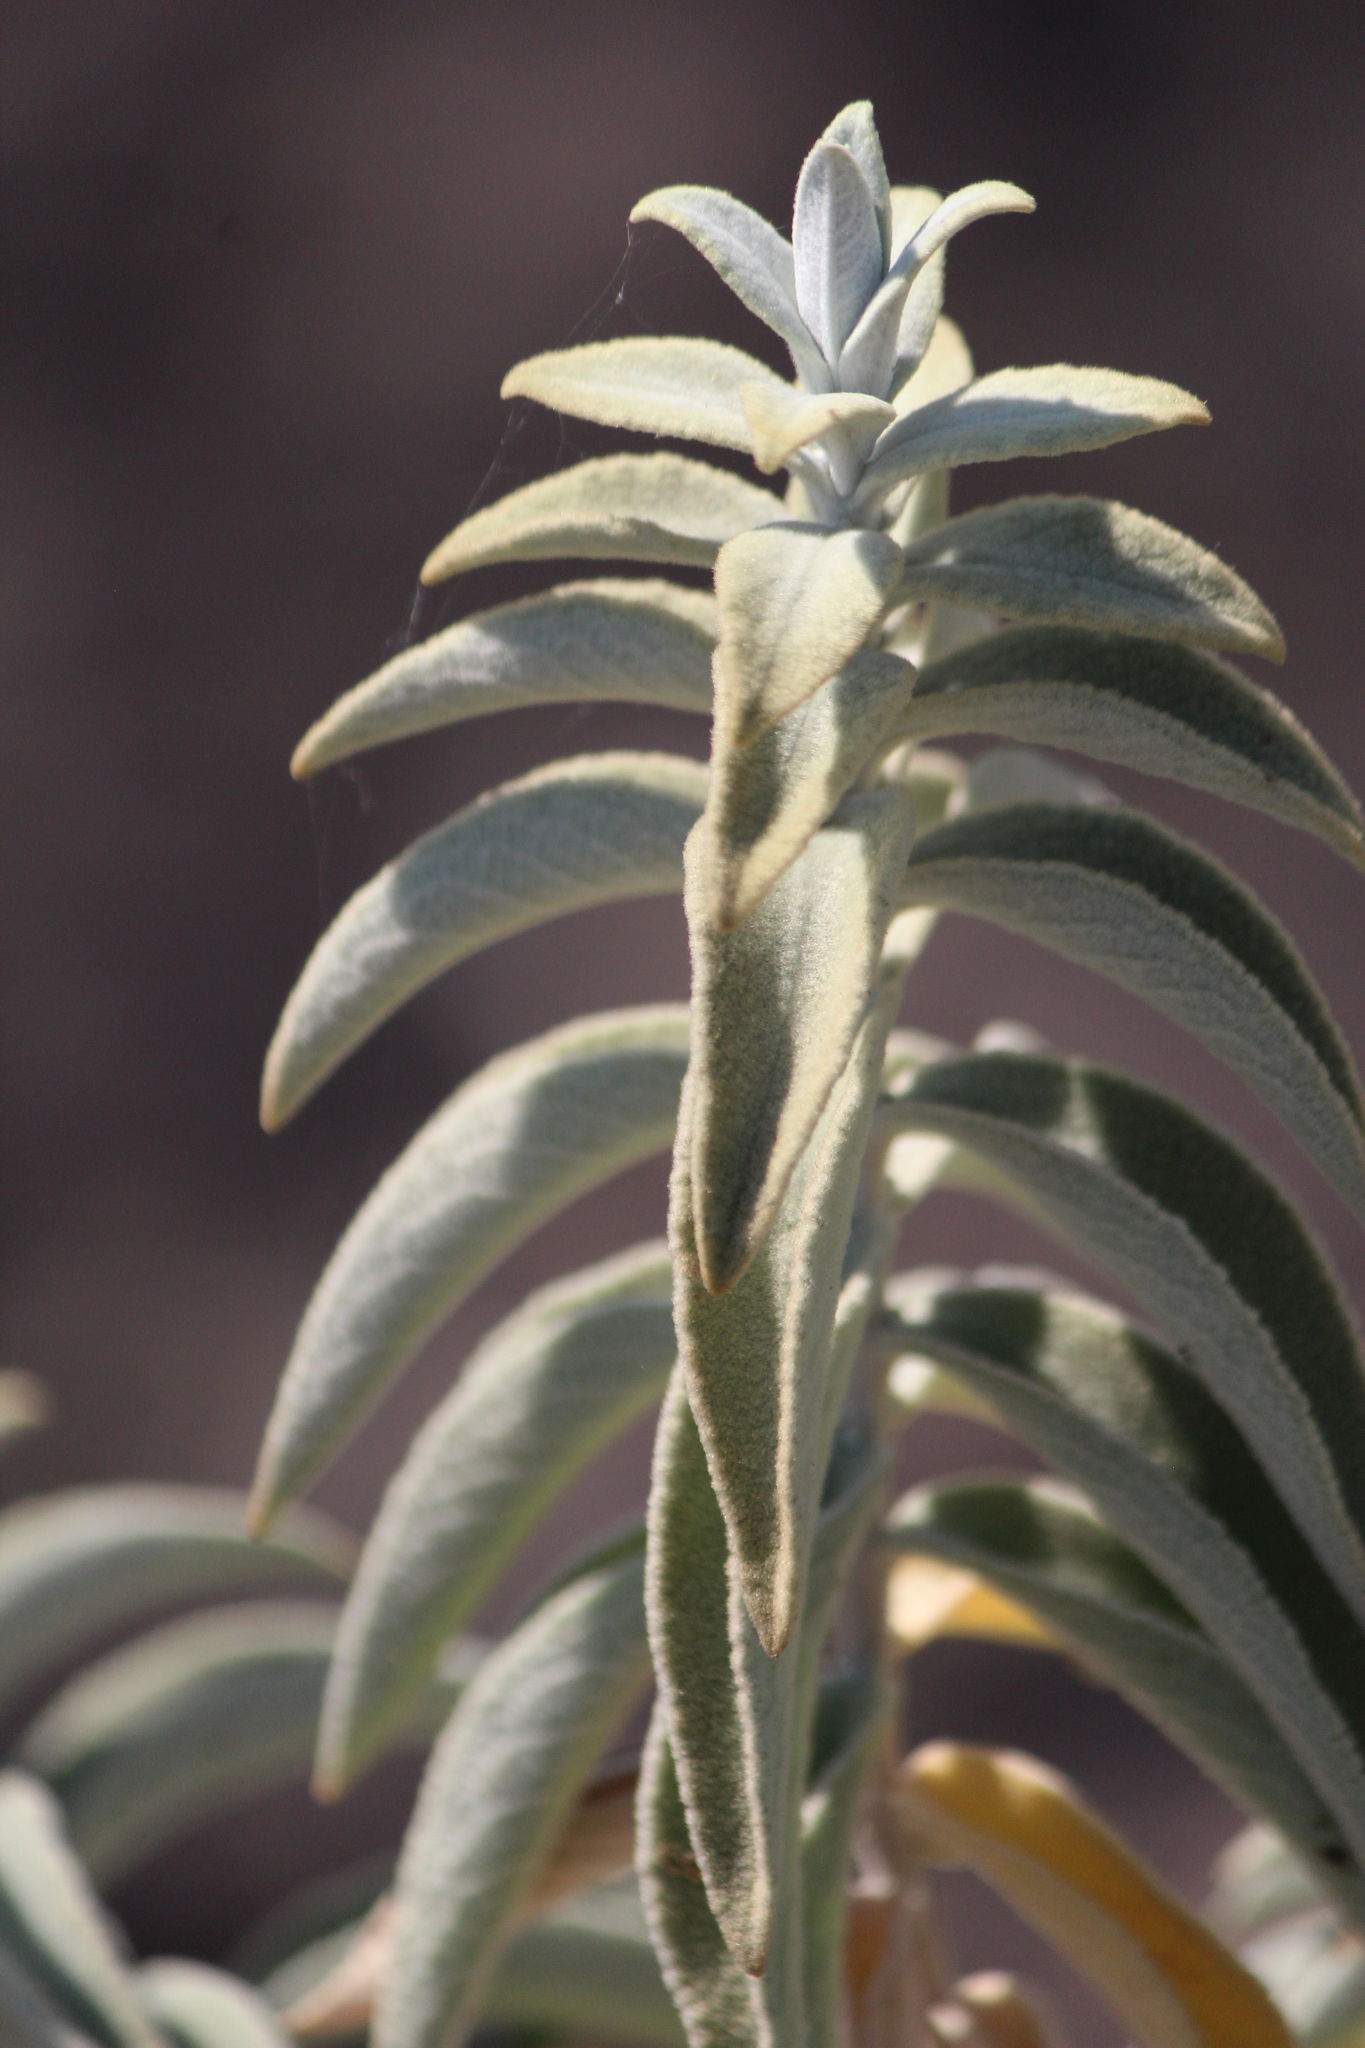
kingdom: Plantae
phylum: Tracheophyta
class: Magnoliopsida
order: Lamiales
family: Scrophulariaceae
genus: Buddleja
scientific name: Buddleja perfoliata
